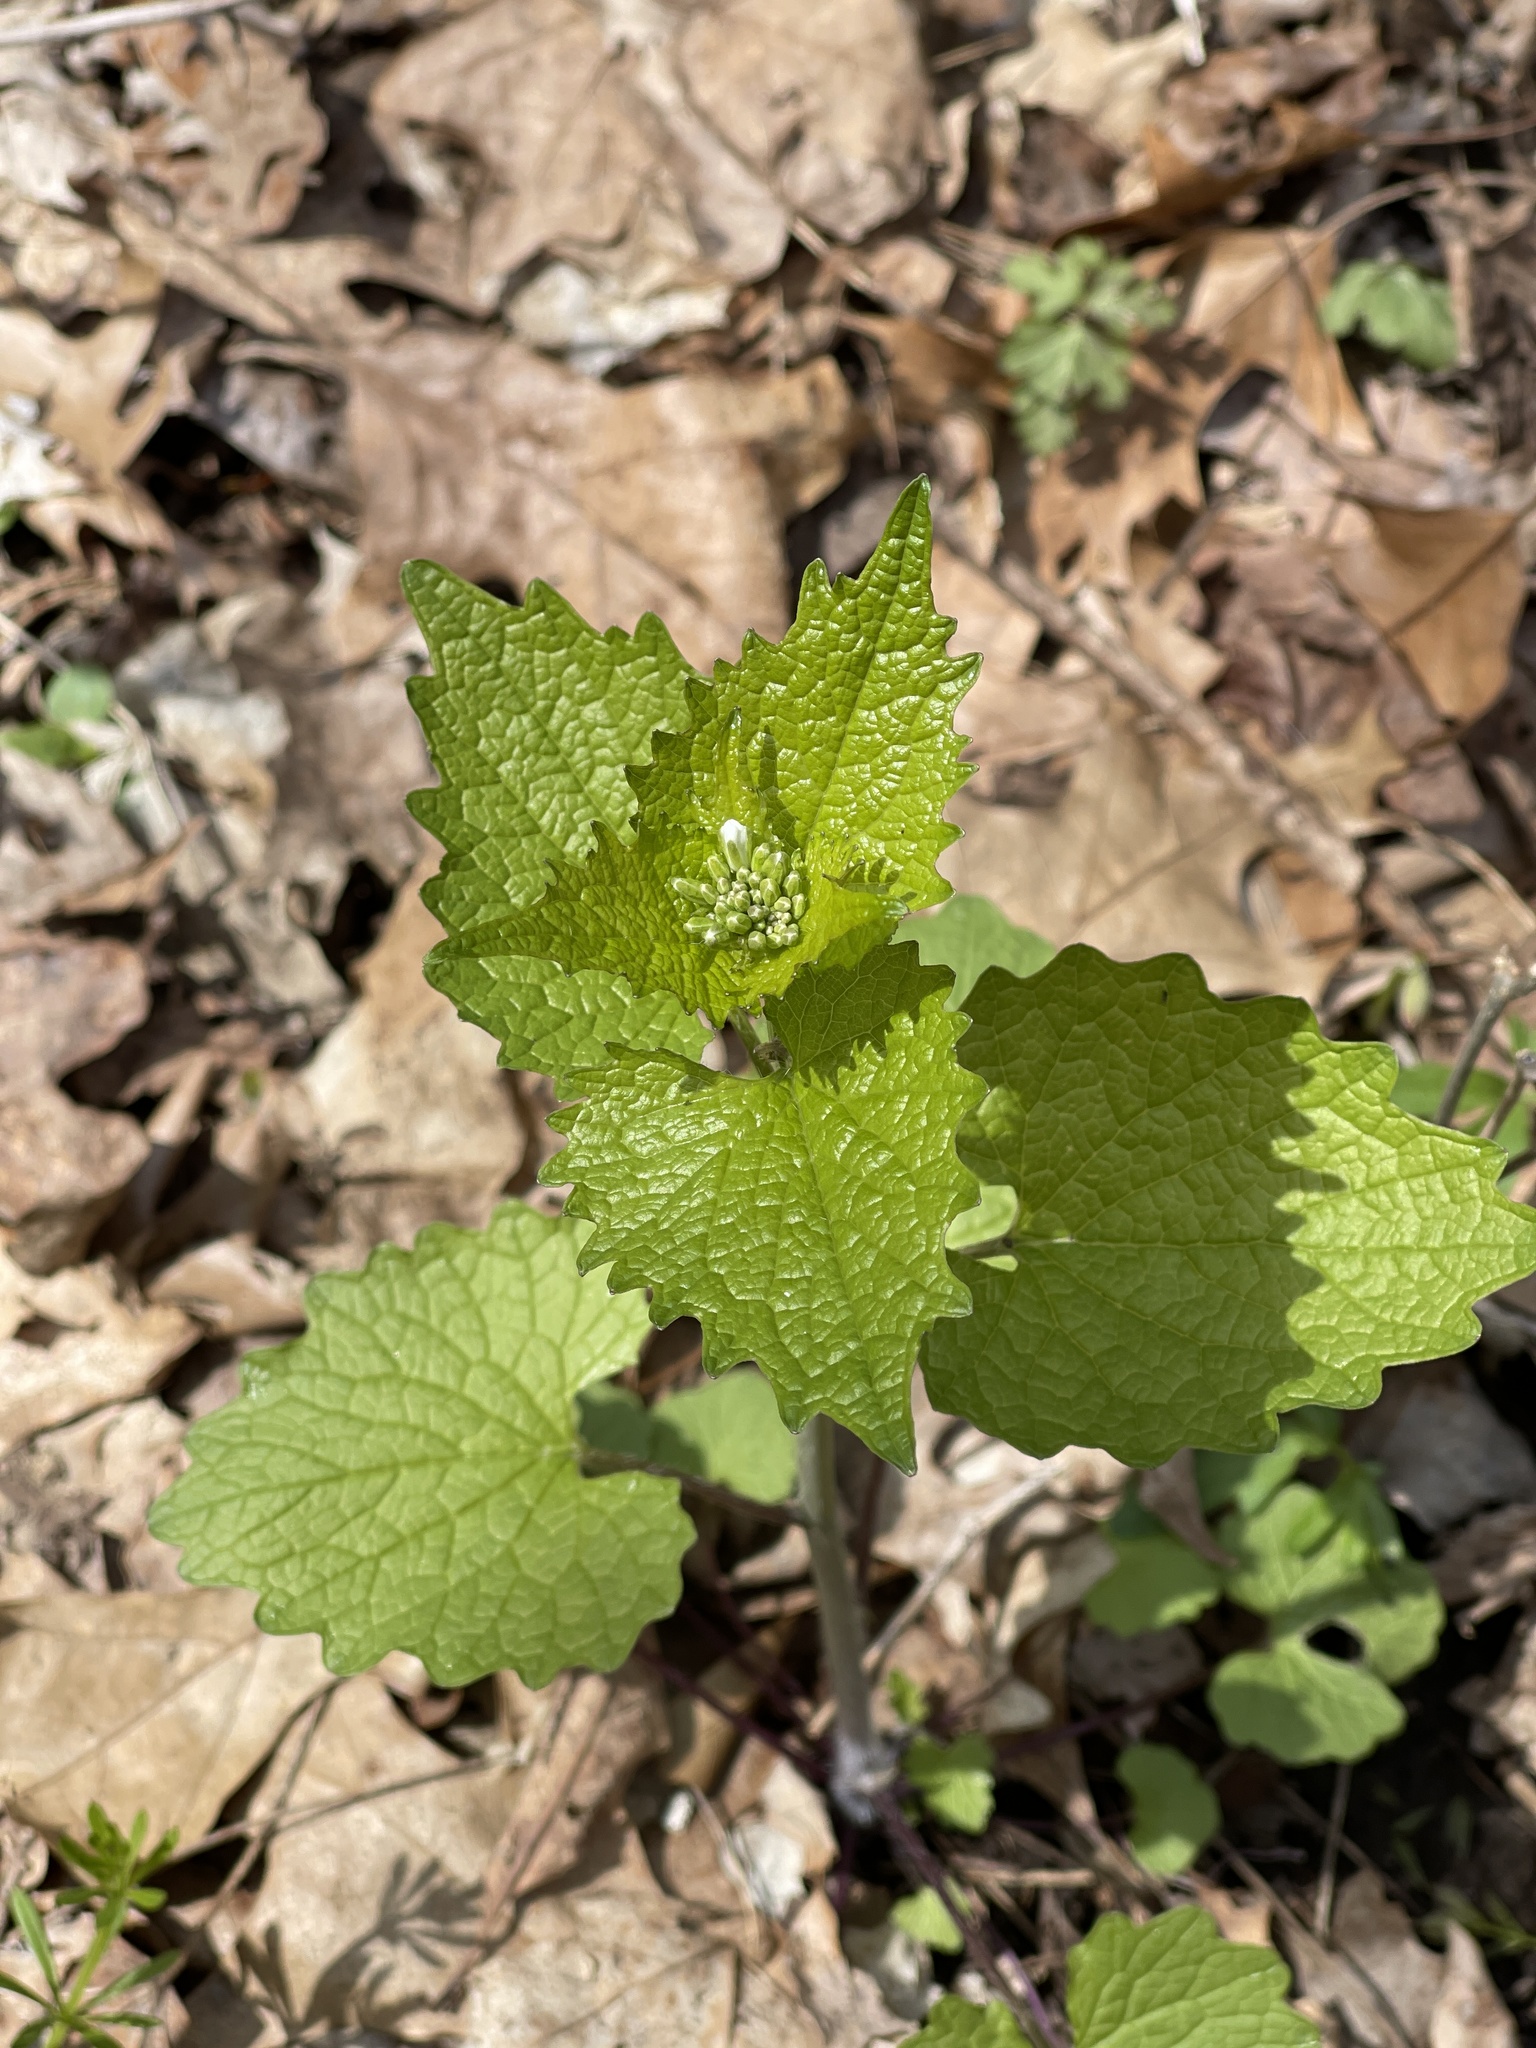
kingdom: Plantae
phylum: Tracheophyta
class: Magnoliopsida
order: Brassicales
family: Brassicaceae
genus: Alliaria
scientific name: Alliaria petiolata
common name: Garlic mustard
